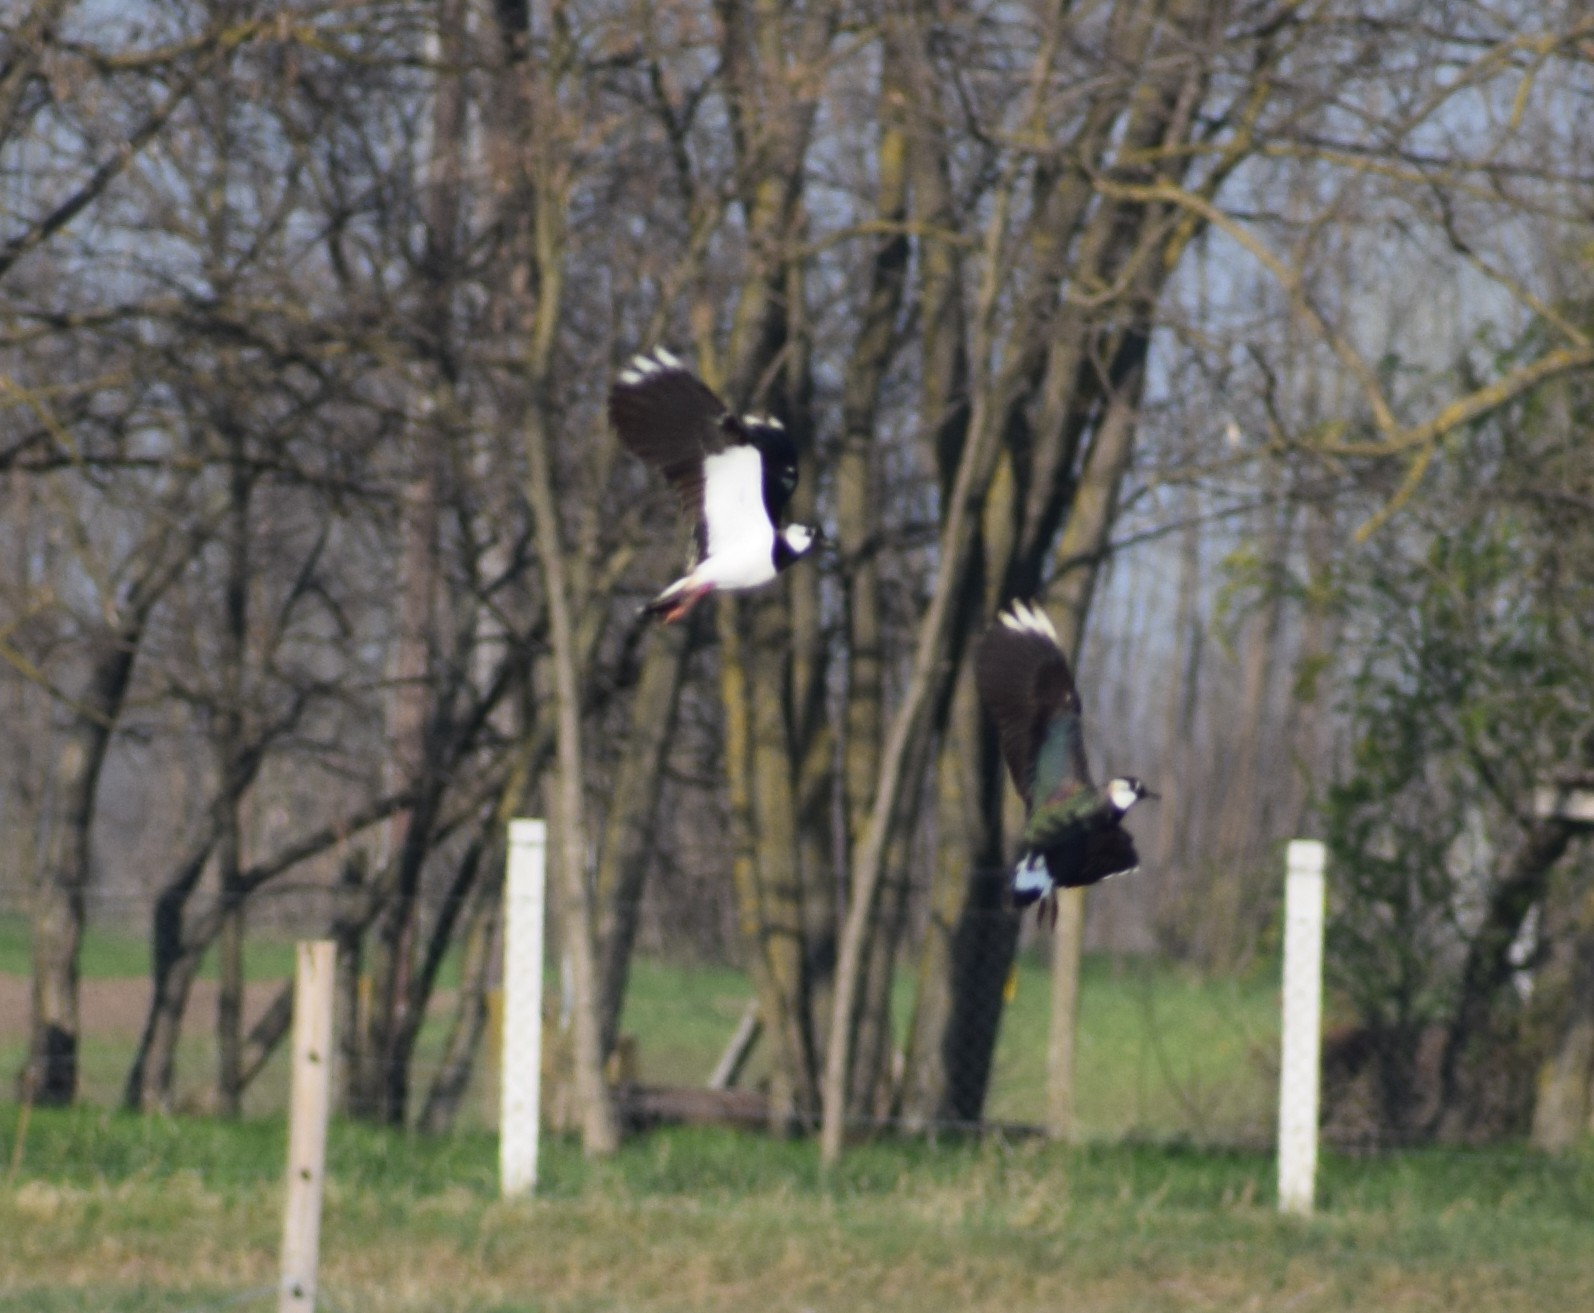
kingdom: Animalia
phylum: Chordata
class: Aves
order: Charadriiformes
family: Charadriidae
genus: Vanellus
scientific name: Vanellus vanellus
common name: Northern lapwing
